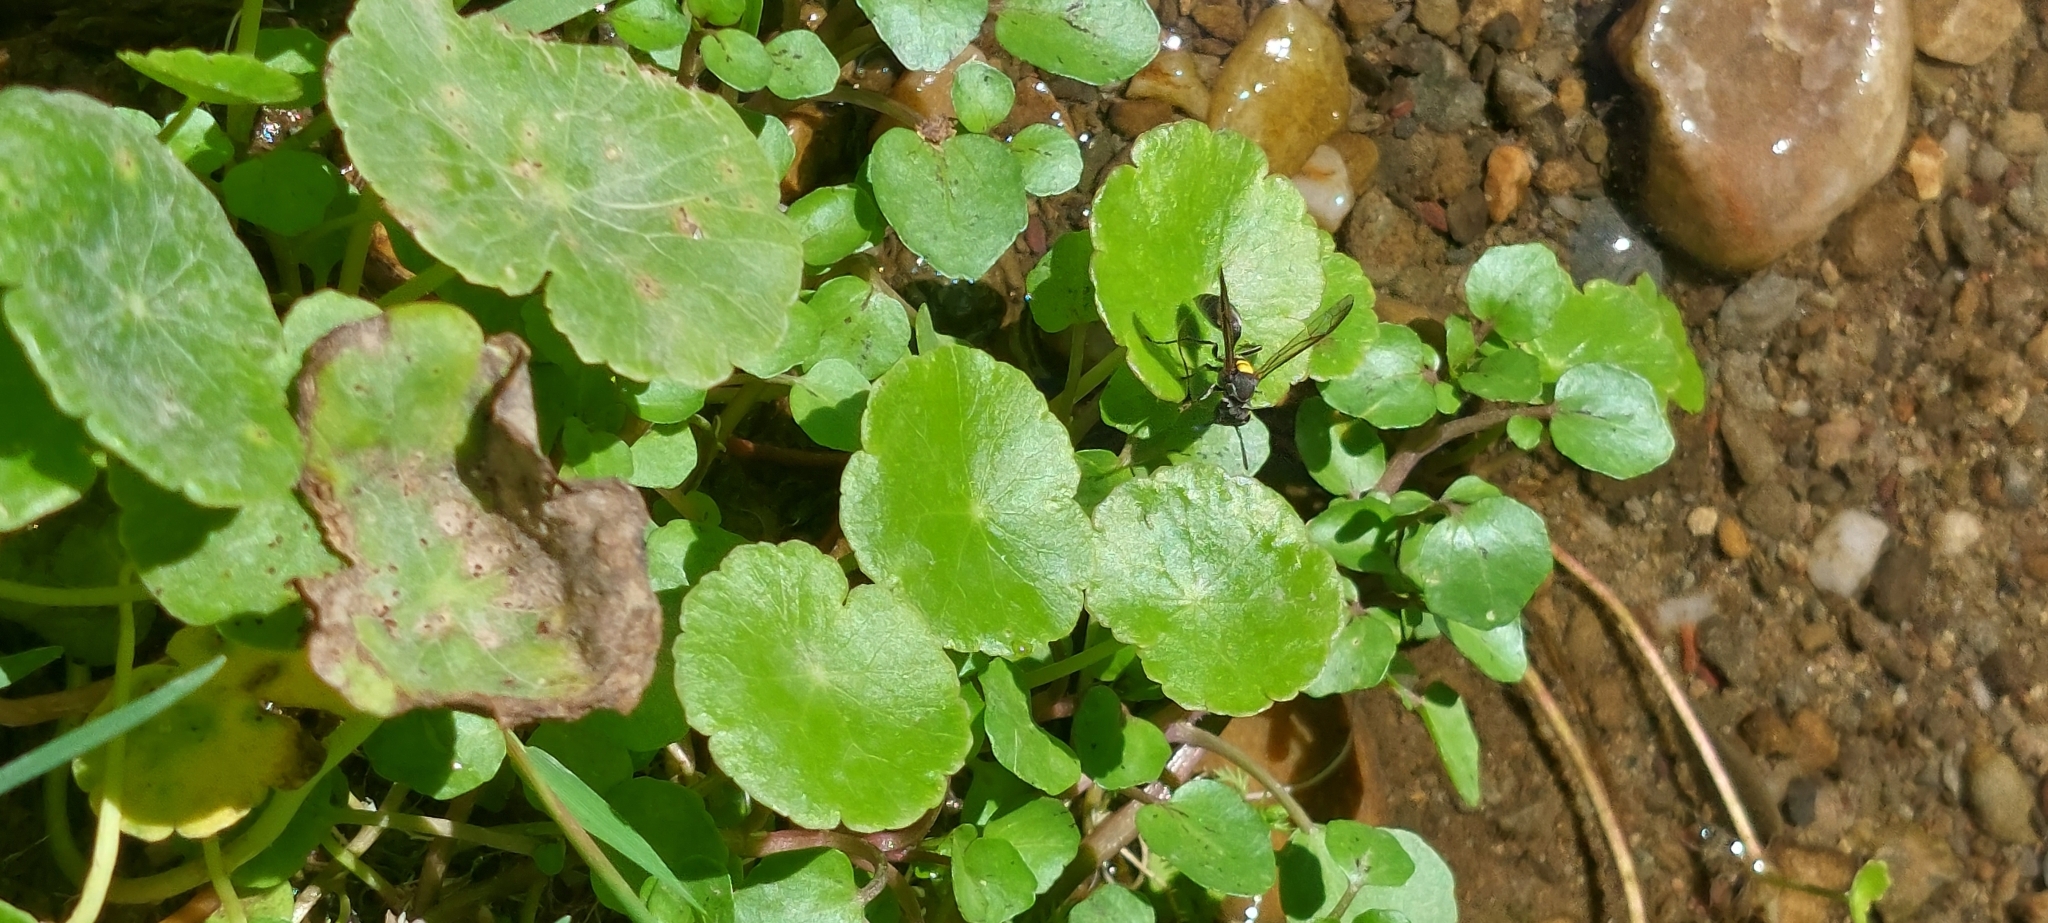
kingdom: Plantae
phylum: Tracheophyta
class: Magnoliopsida
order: Apiales
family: Araliaceae
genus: Hydrocotyle
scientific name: Hydrocotyle bonariensis
